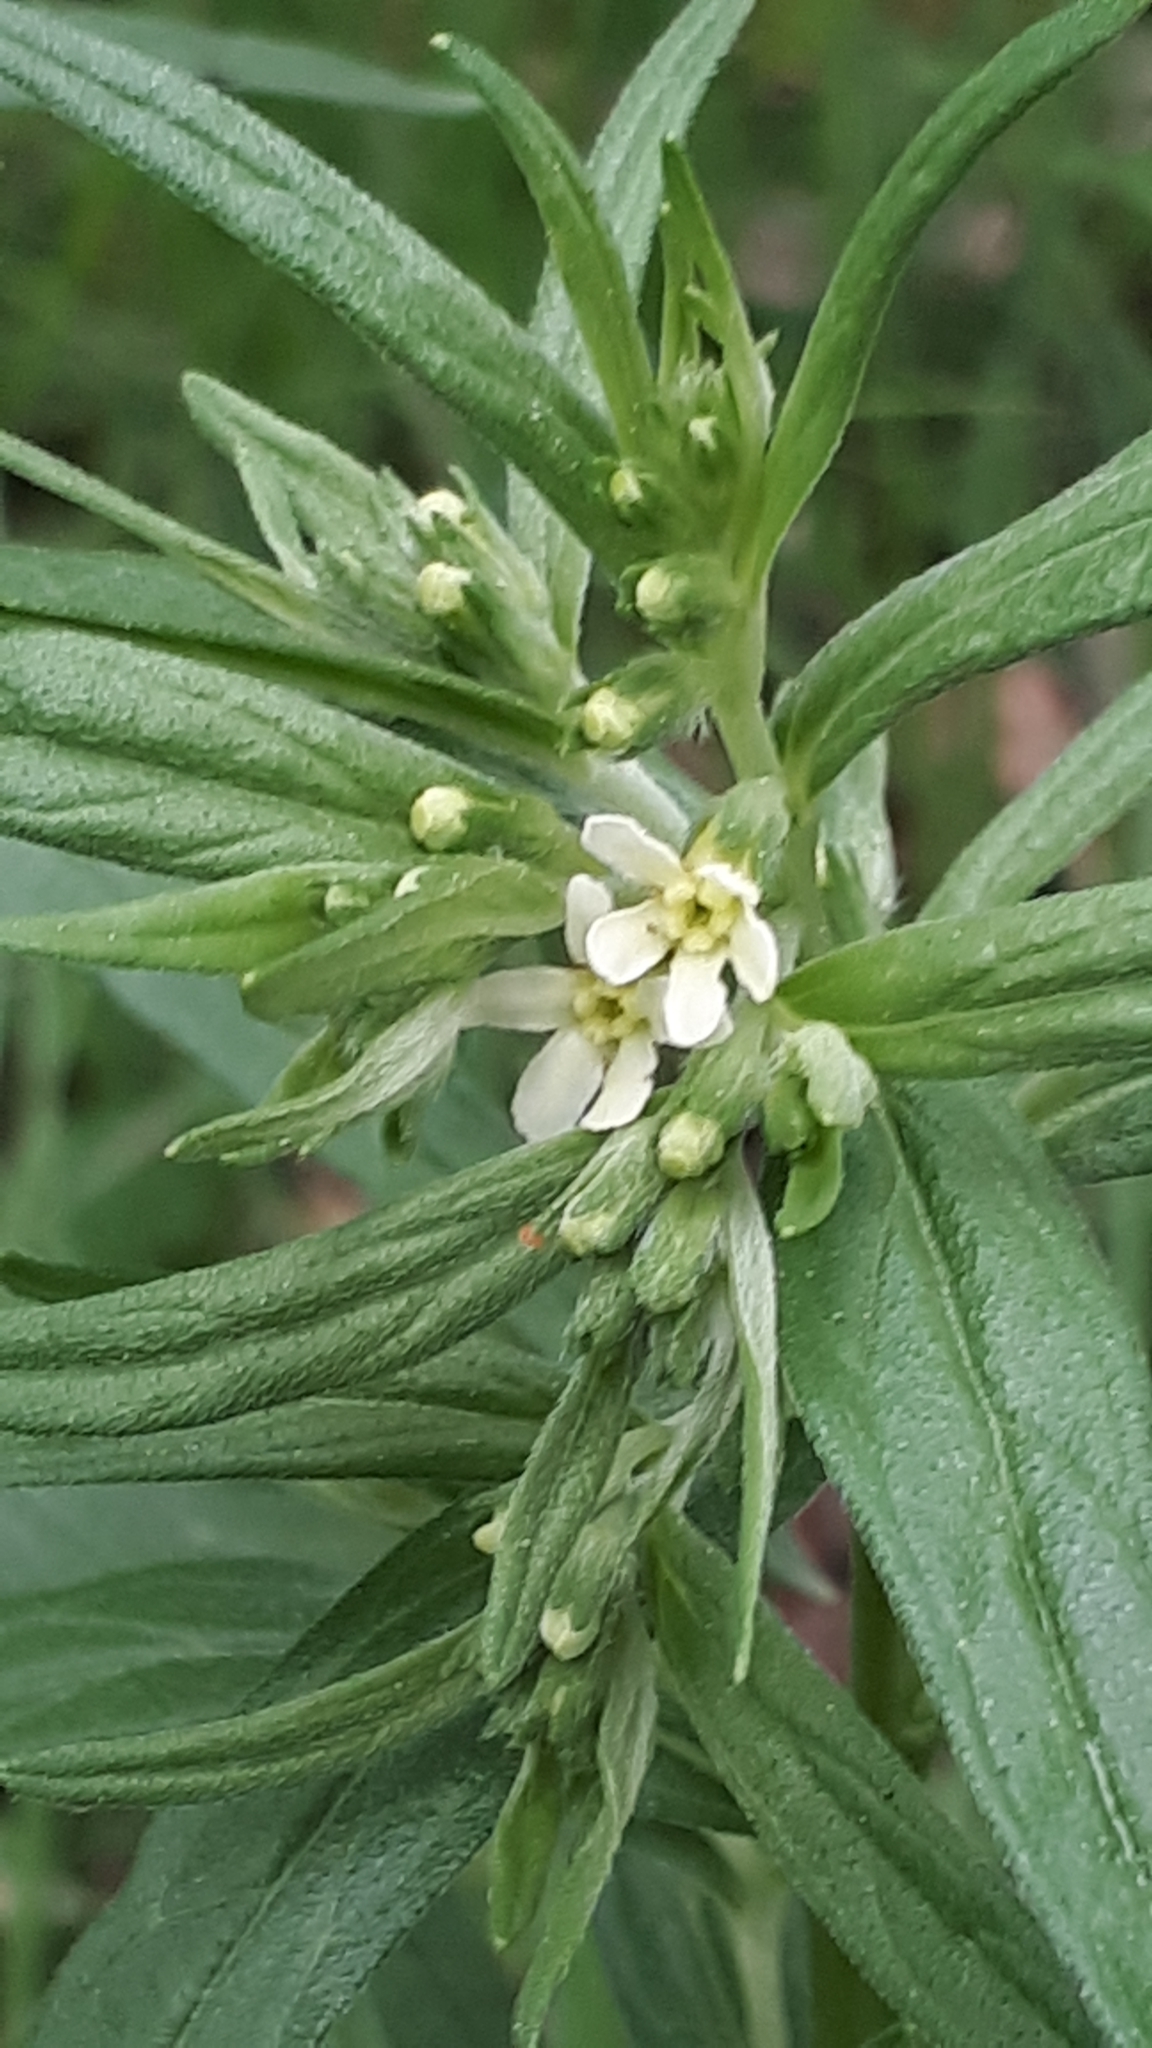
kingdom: Plantae
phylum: Tracheophyta
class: Magnoliopsida
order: Boraginales
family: Boraginaceae
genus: Lithospermum
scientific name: Lithospermum officinale
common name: Common gromwell
